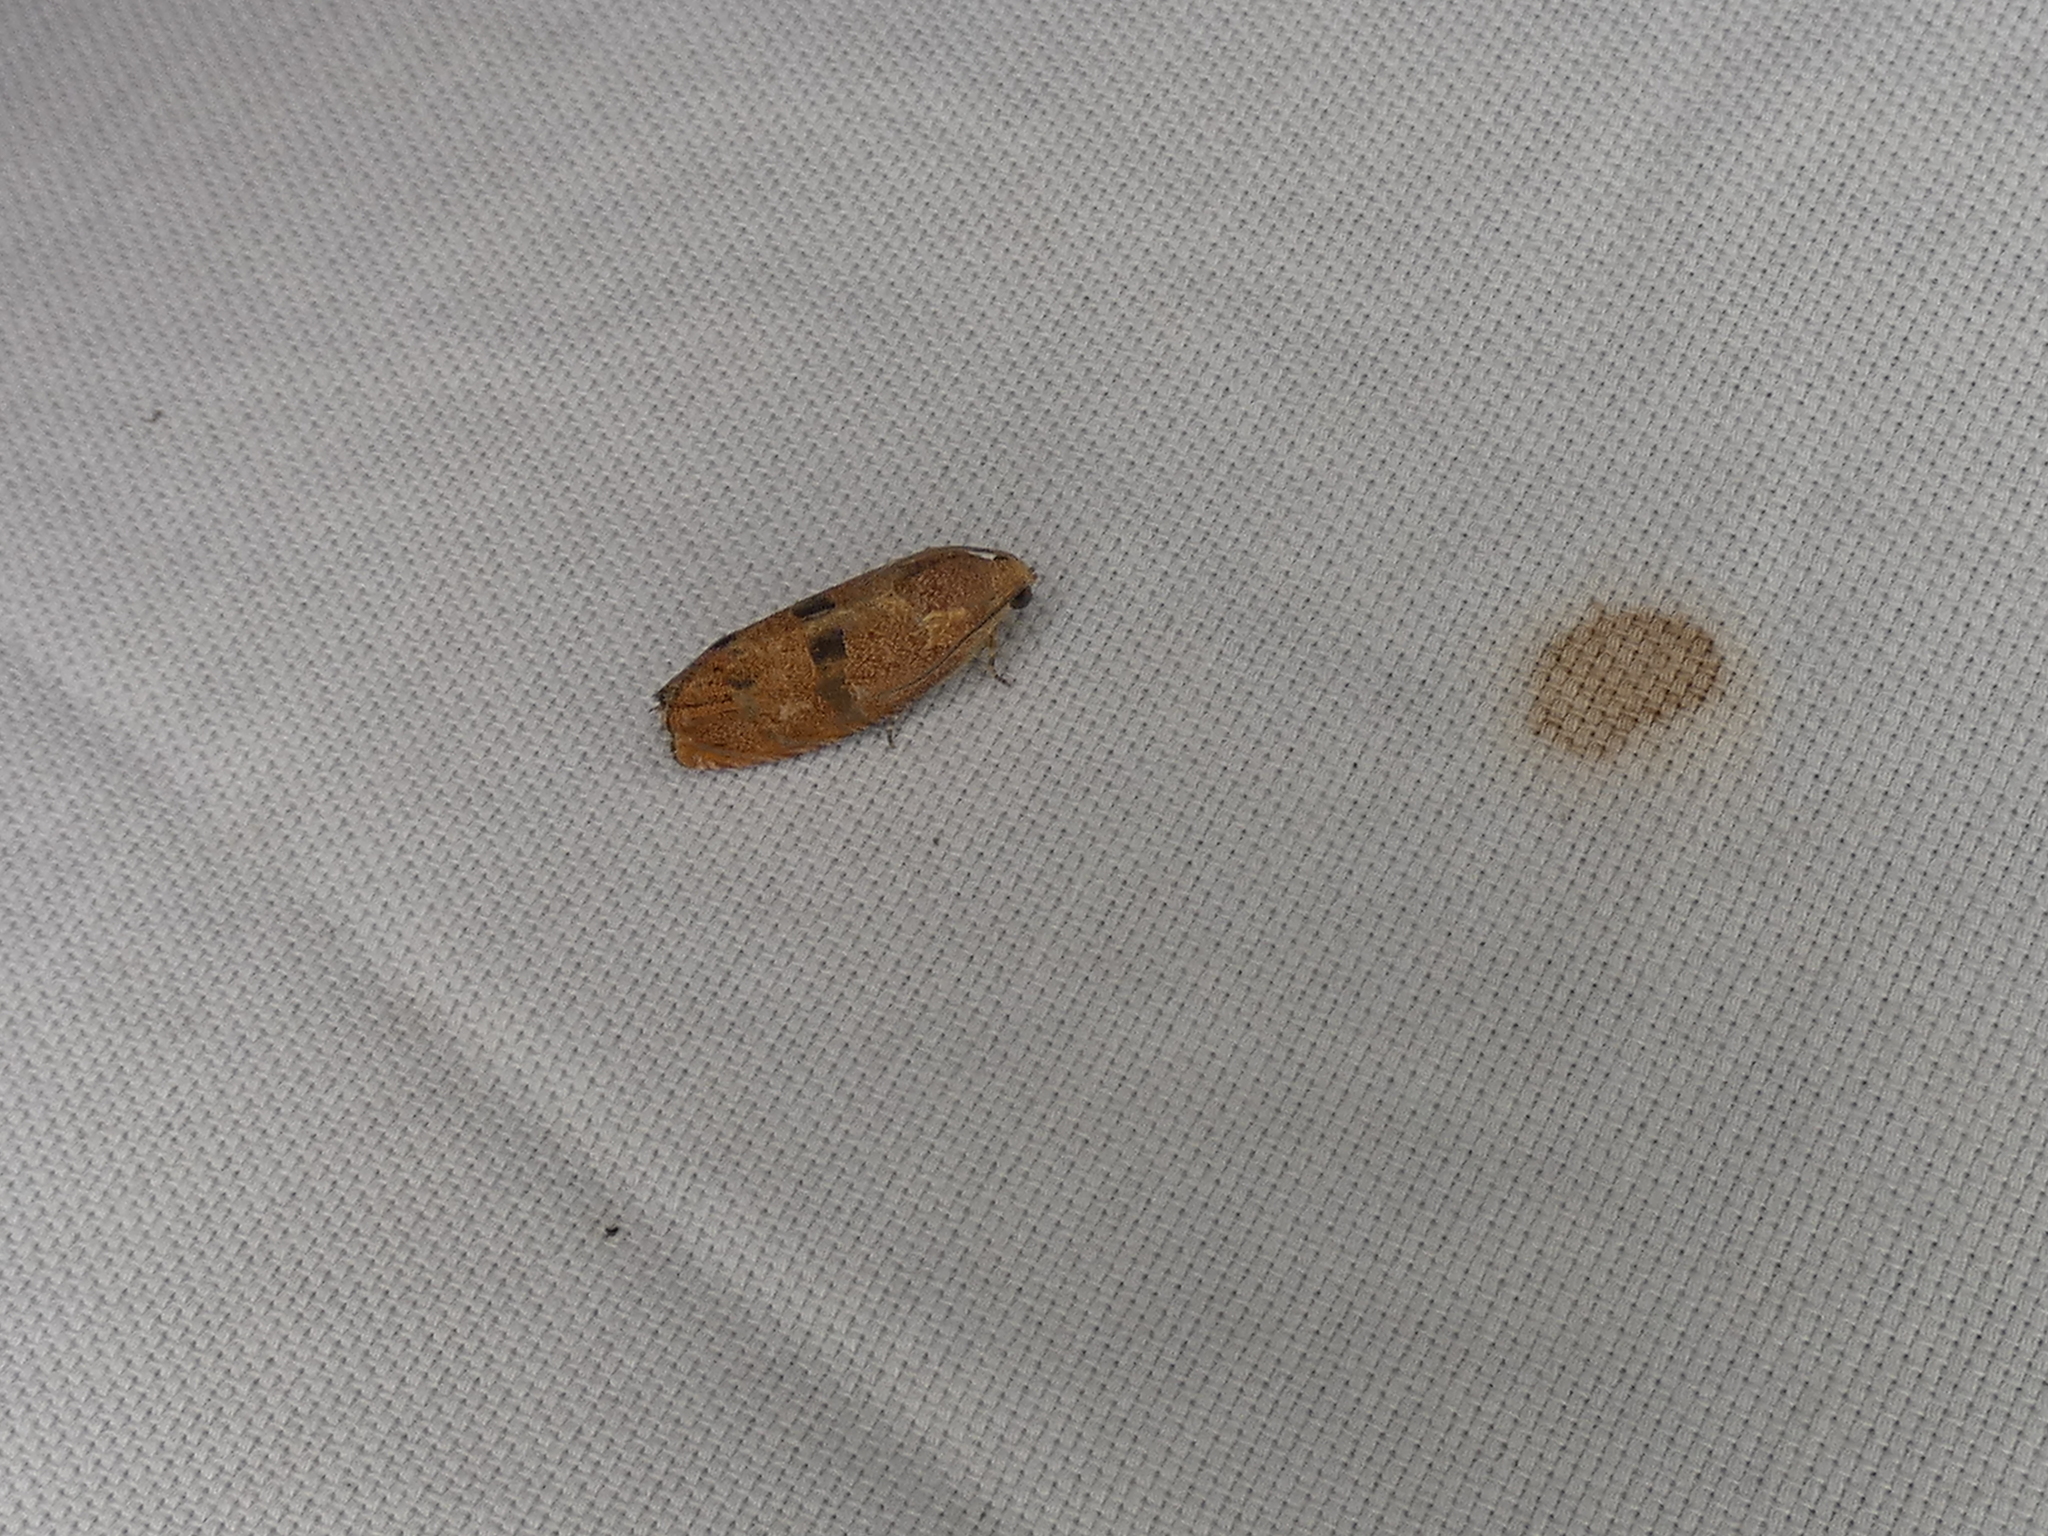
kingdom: Animalia
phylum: Arthropoda
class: Insecta
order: Lepidoptera
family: Tortricidae
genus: Cydia
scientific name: Cydia latiferreana
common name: Filbertworm moth
